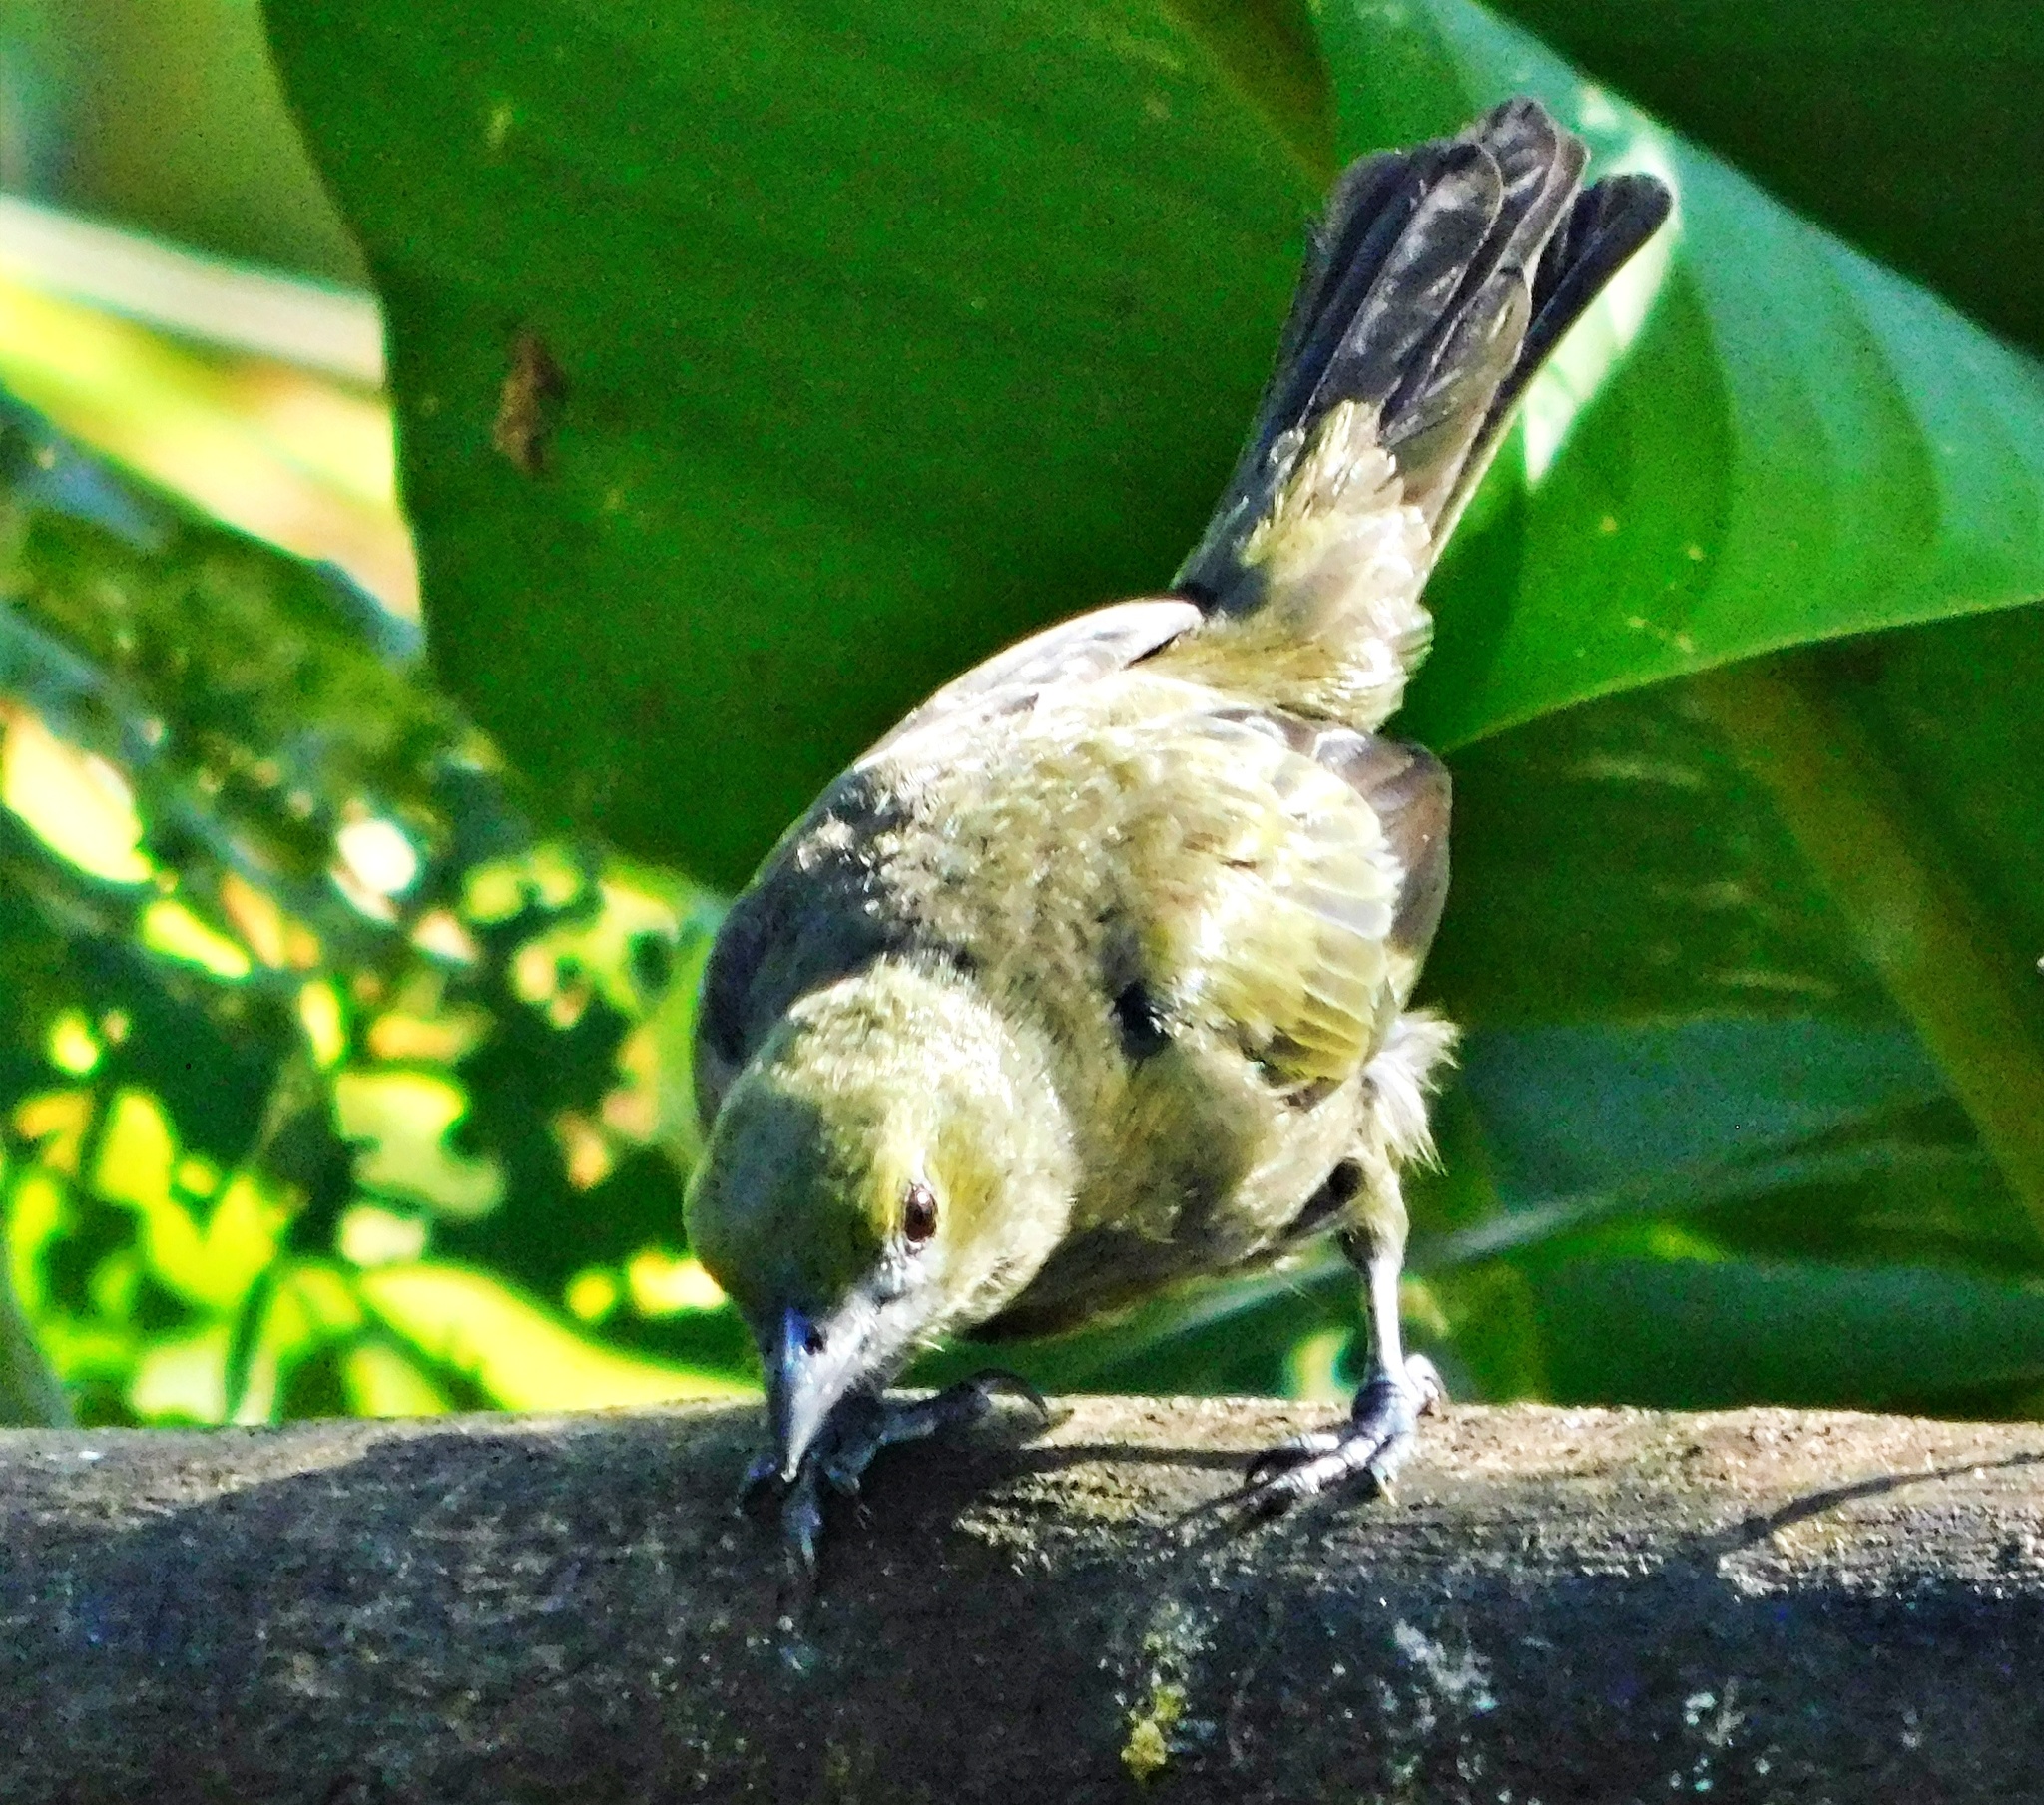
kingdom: Animalia
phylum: Chordata
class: Aves
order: Passeriformes
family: Thraupidae
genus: Thraupis
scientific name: Thraupis palmarum
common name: Palm tanager
